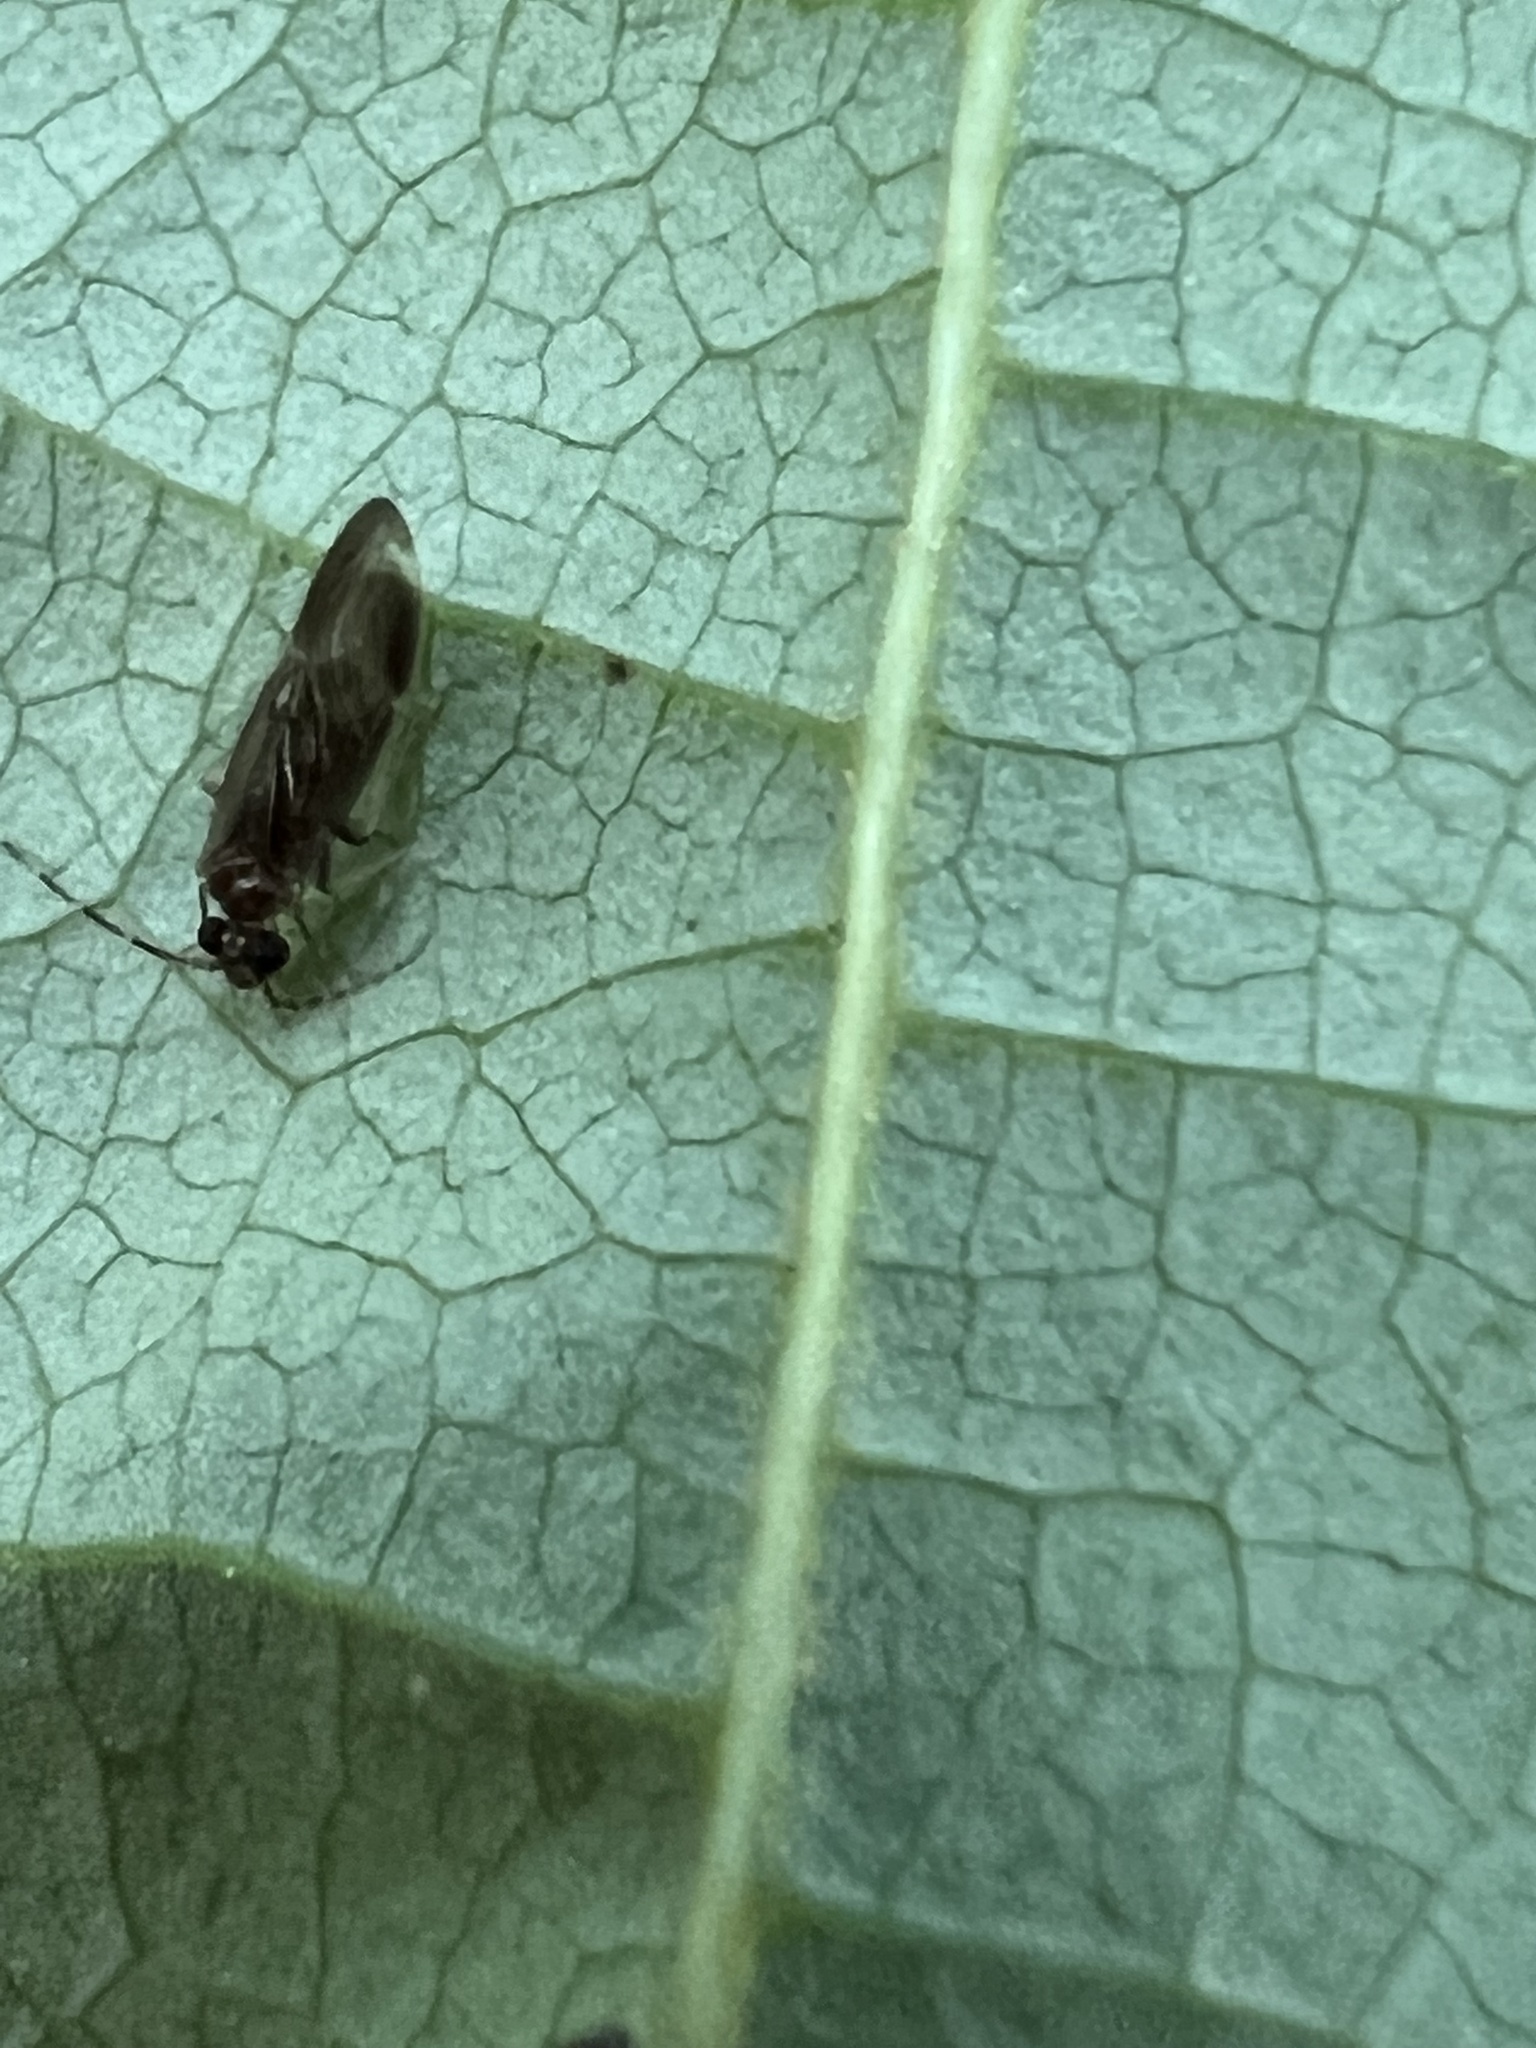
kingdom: Animalia
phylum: Arthropoda
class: Insecta
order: Psocodea
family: Amphipsocidae
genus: Polypsocus
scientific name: Polypsocus corruptus
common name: Corrupt barklouse
